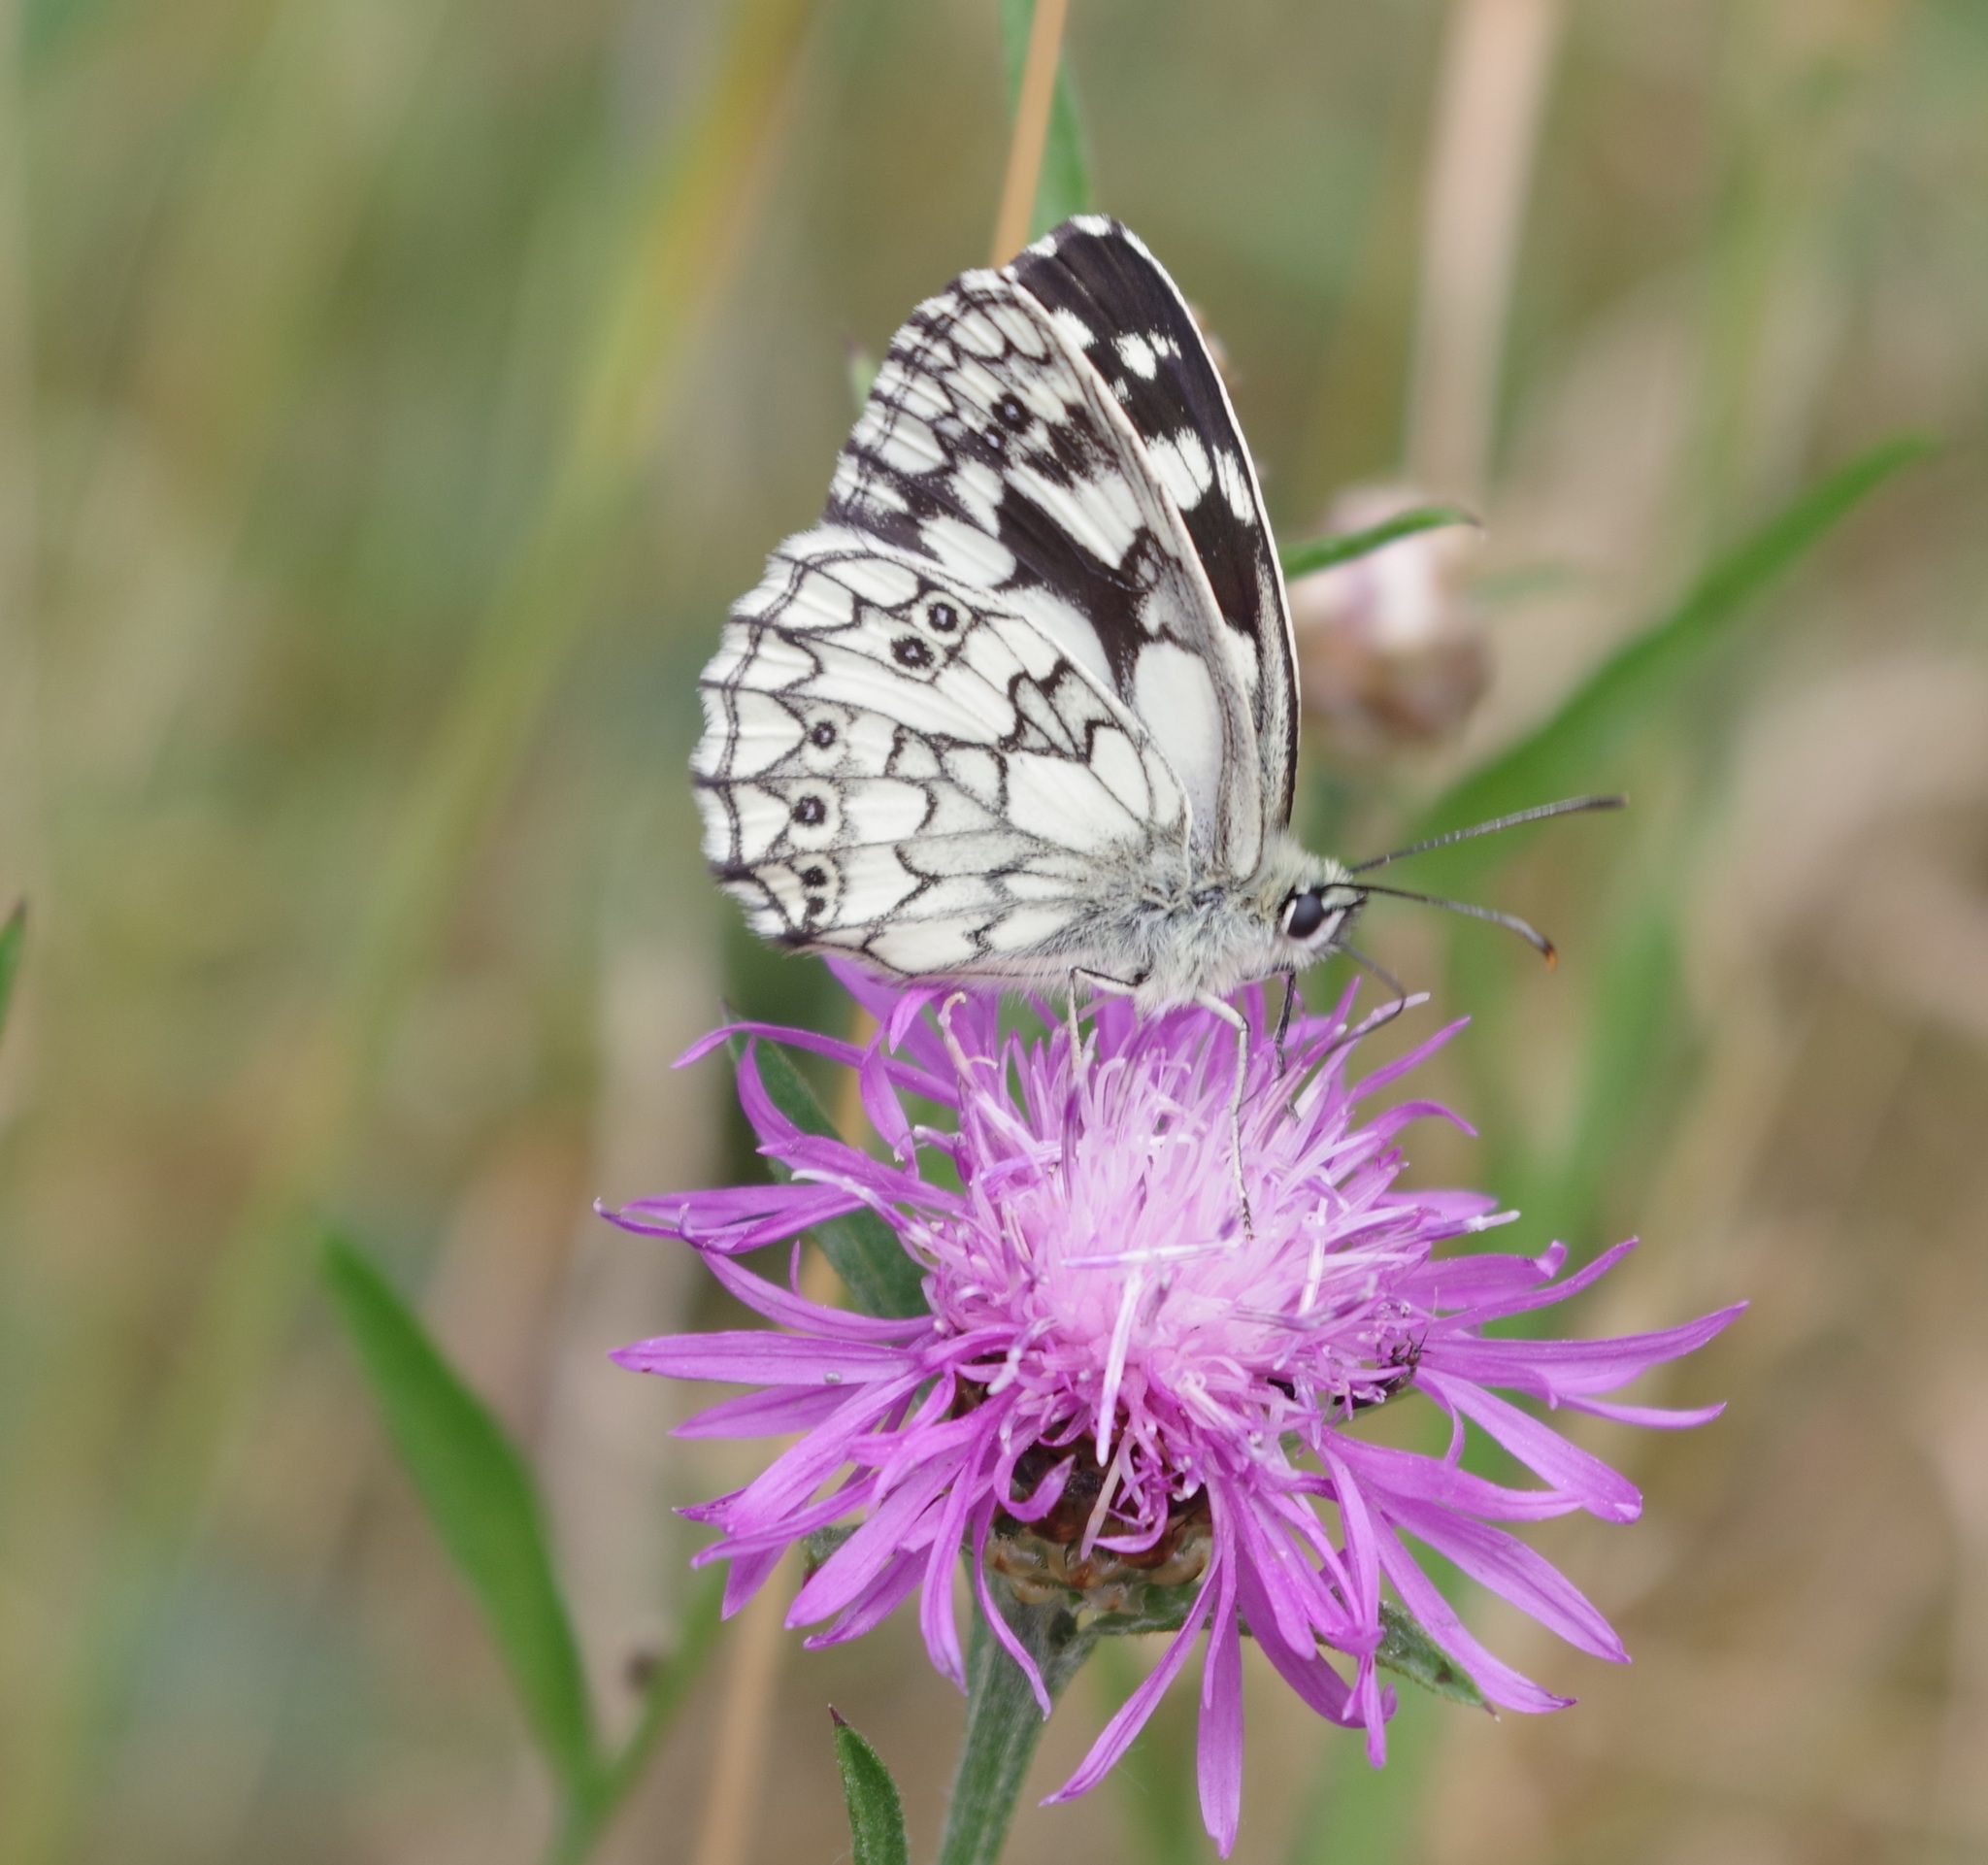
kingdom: Animalia
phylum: Arthropoda
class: Insecta
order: Lepidoptera
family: Nymphalidae
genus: Melanargia
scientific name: Melanargia galathea
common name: Marbled white
